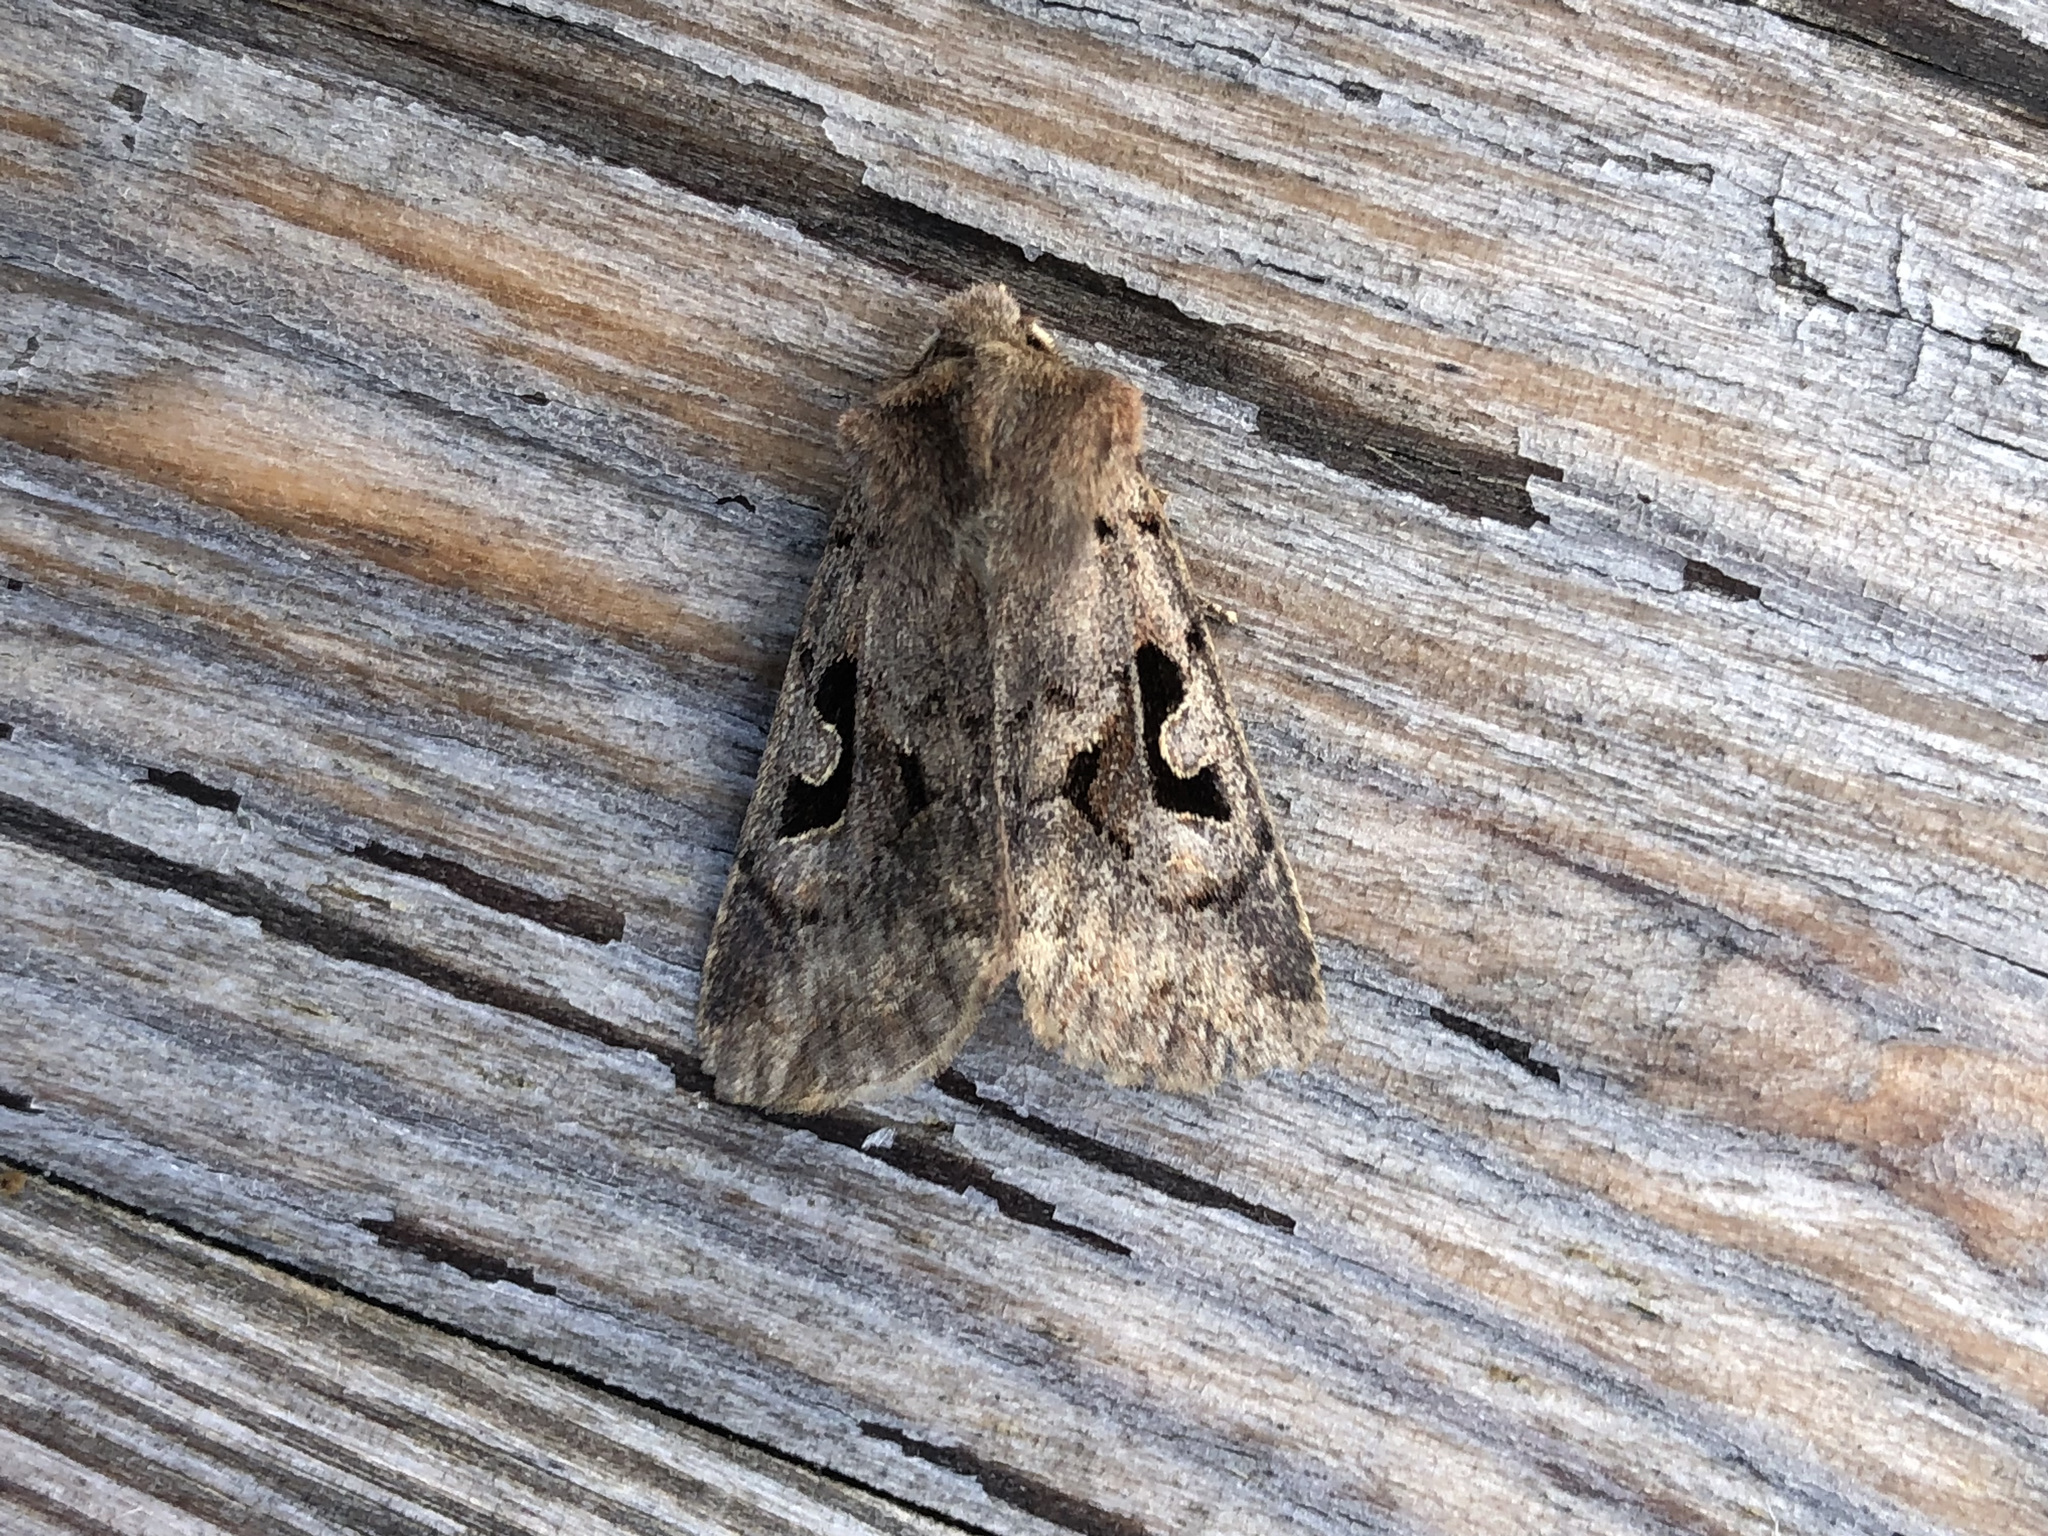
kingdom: Animalia
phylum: Arthropoda
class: Insecta
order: Lepidoptera
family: Noctuidae
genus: Orthosia
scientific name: Orthosia gothica
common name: Hebrew character
